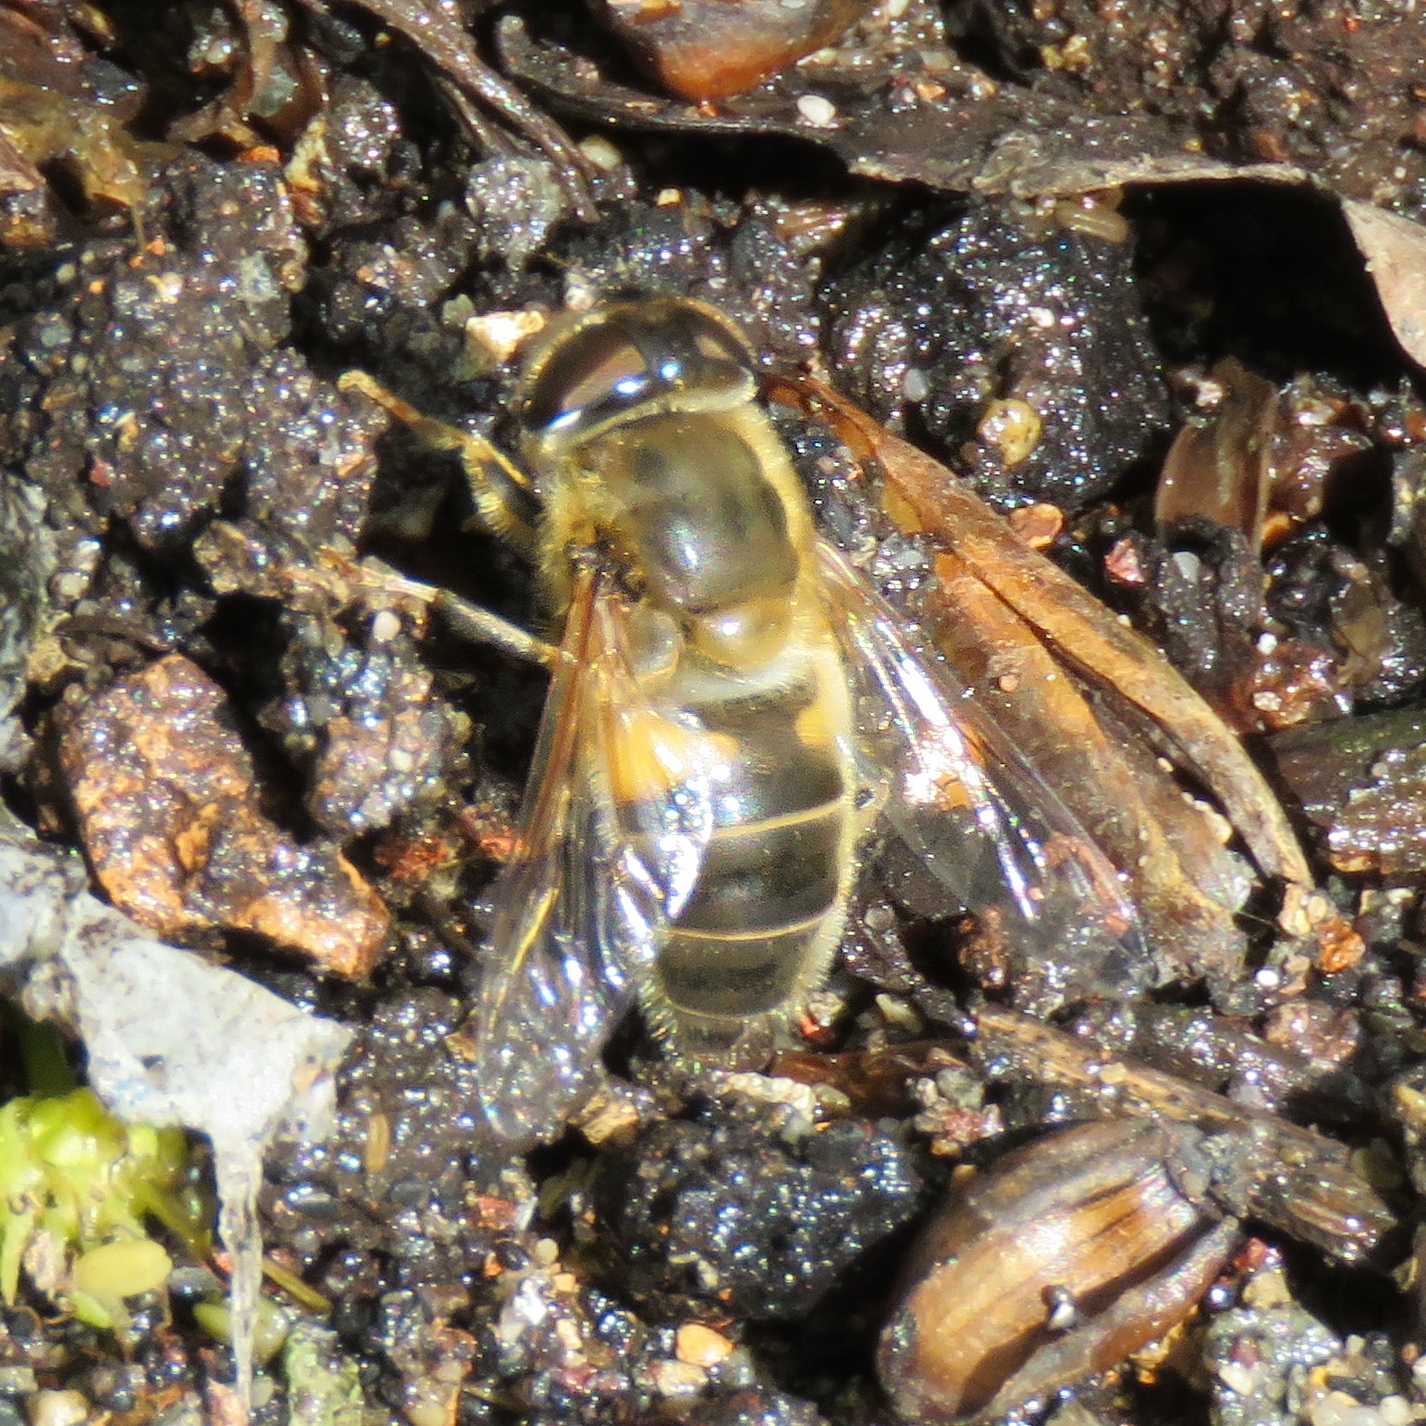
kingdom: Animalia
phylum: Arthropoda
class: Insecta
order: Diptera
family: Syrphidae
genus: Eristalis
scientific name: Eristalis pertinax
